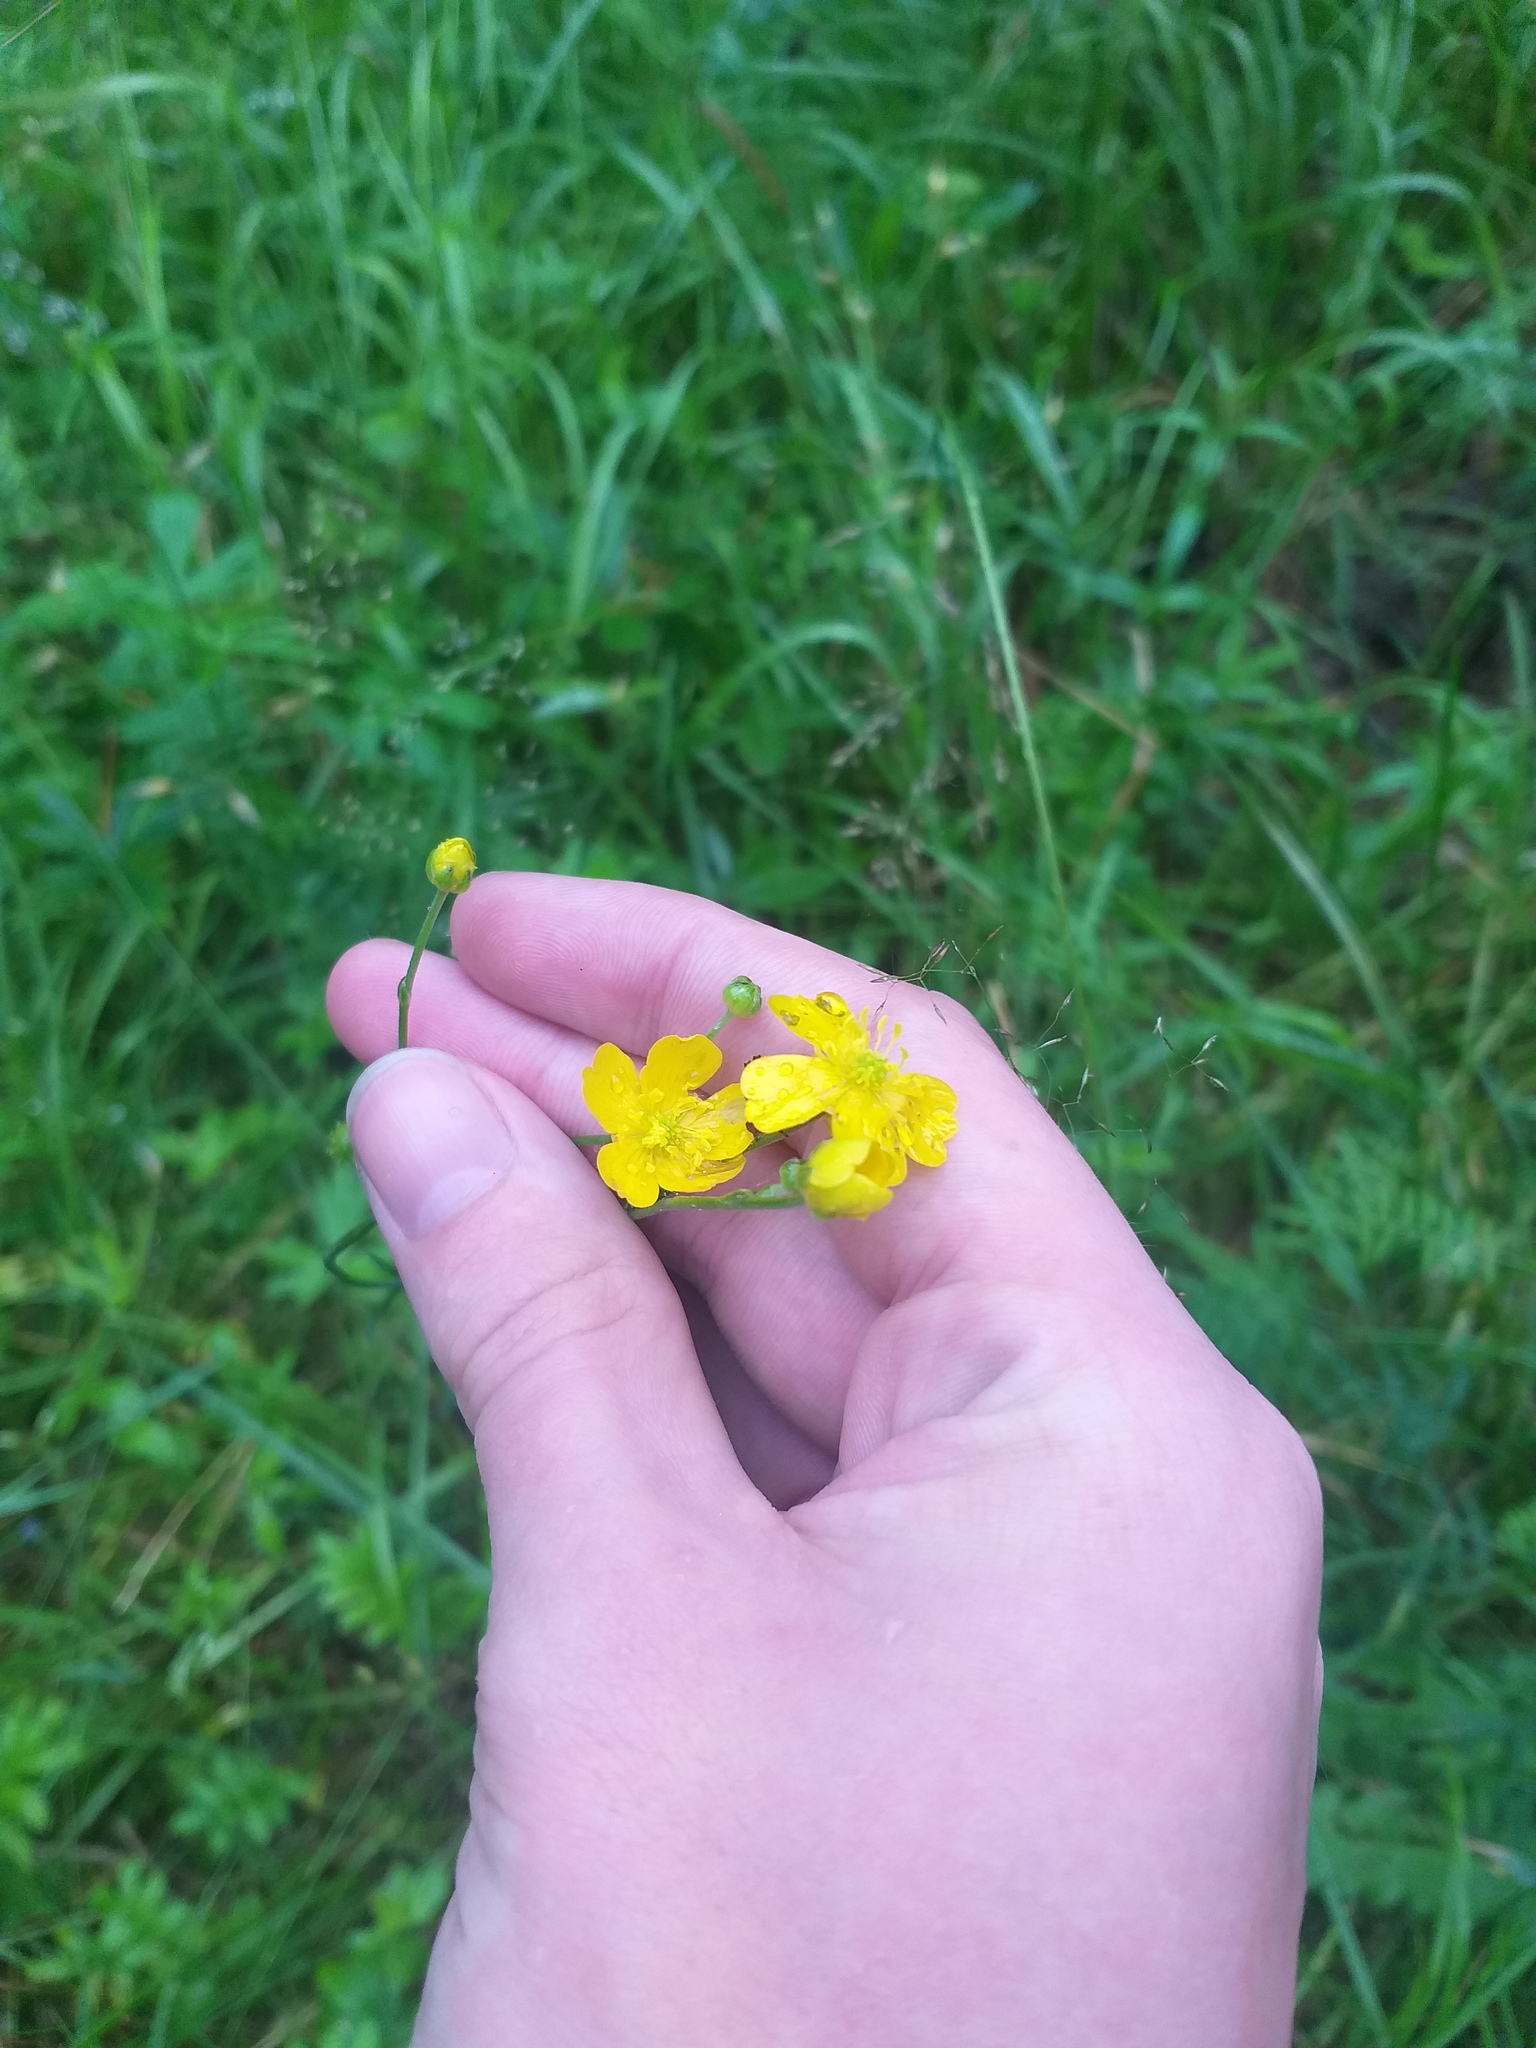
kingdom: Plantae
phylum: Tracheophyta
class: Magnoliopsida
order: Ranunculales
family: Ranunculaceae
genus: Ranunculus
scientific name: Ranunculus acris
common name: Meadow buttercup
